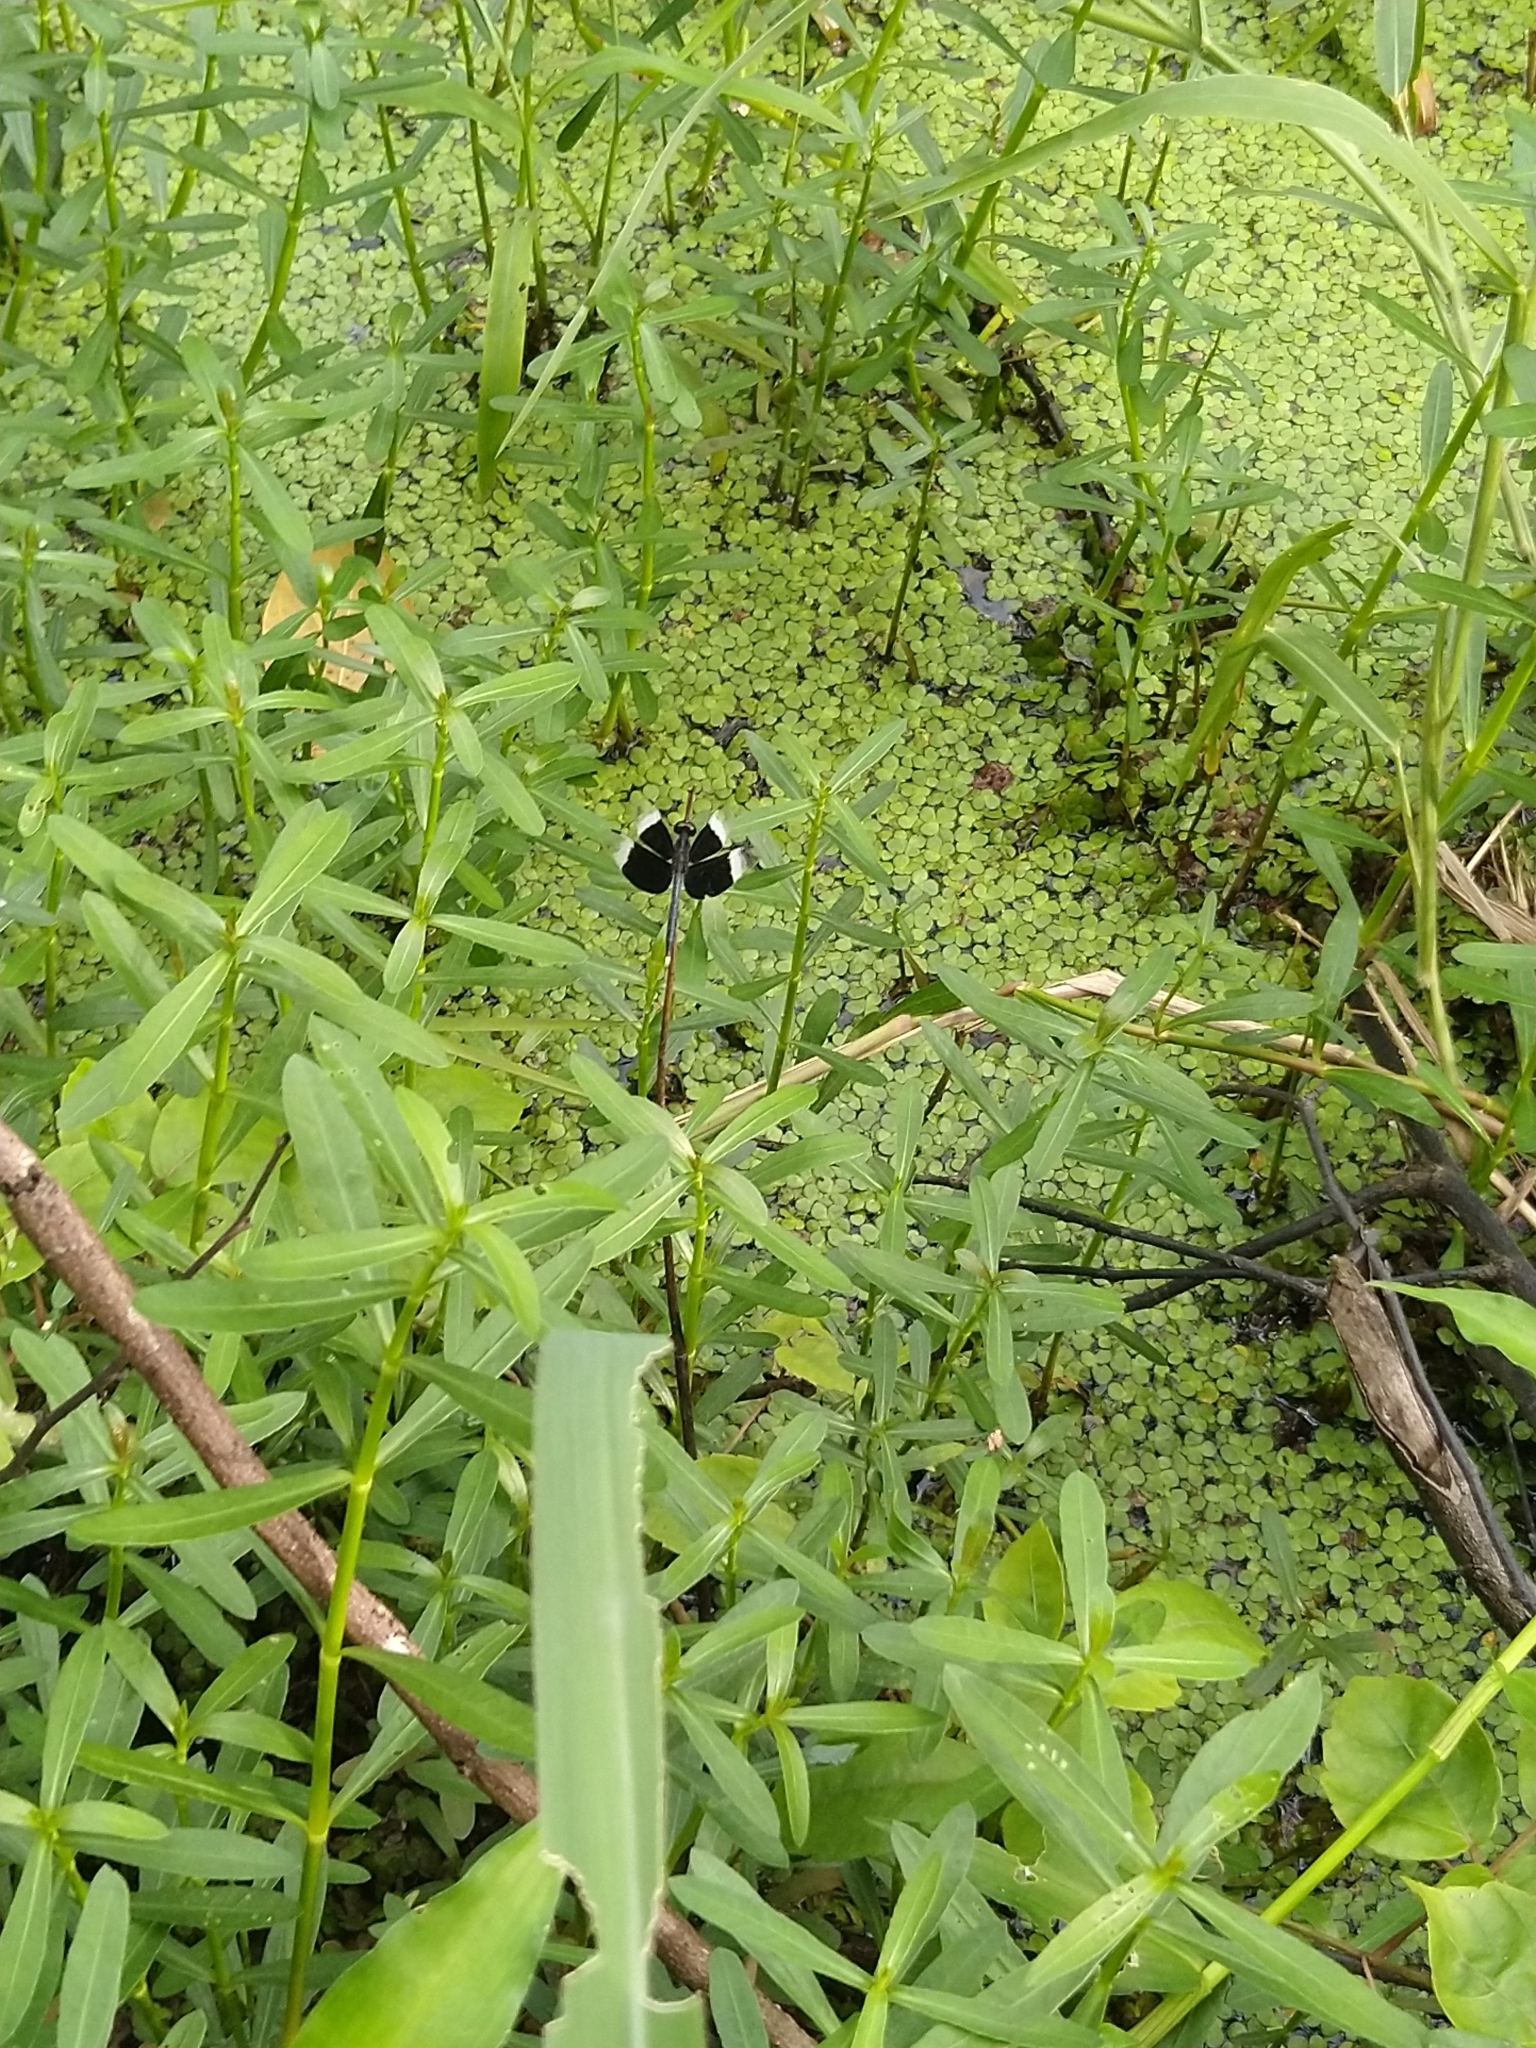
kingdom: Animalia
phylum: Arthropoda
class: Insecta
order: Odonata
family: Libellulidae
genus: Neurothemis
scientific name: Neurothemis tullia
